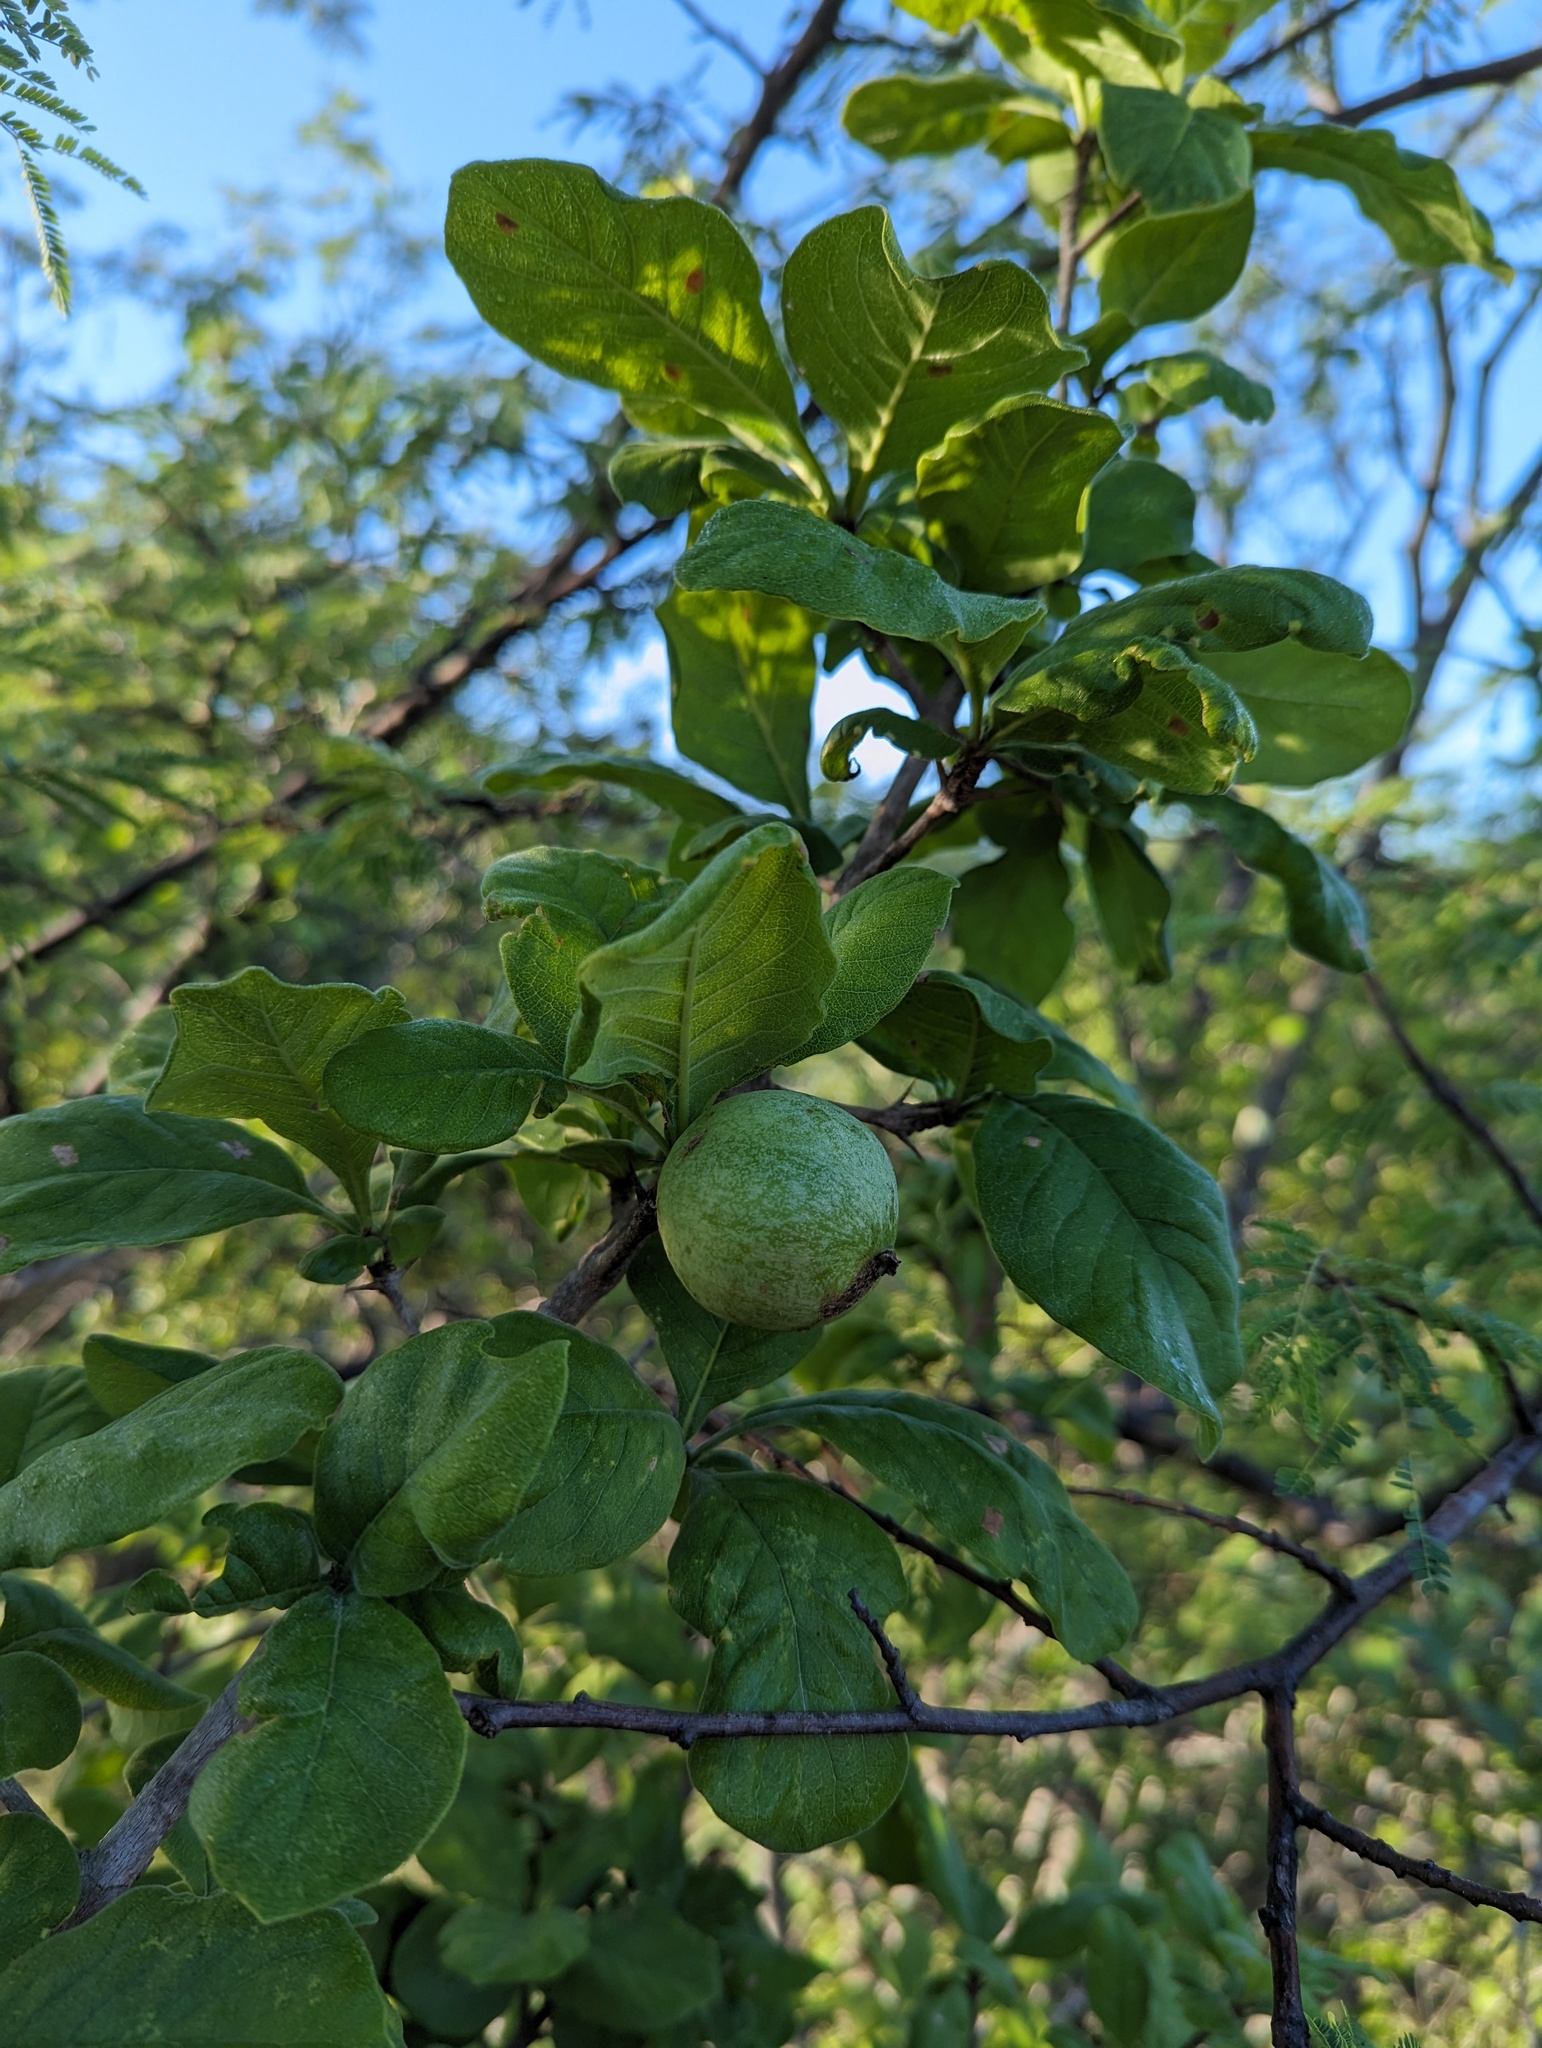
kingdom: Plantae
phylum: Tracheophyta
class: Magnoliopsida
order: Gentianales
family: Rubiaceae
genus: Randia
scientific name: Randia capitata
